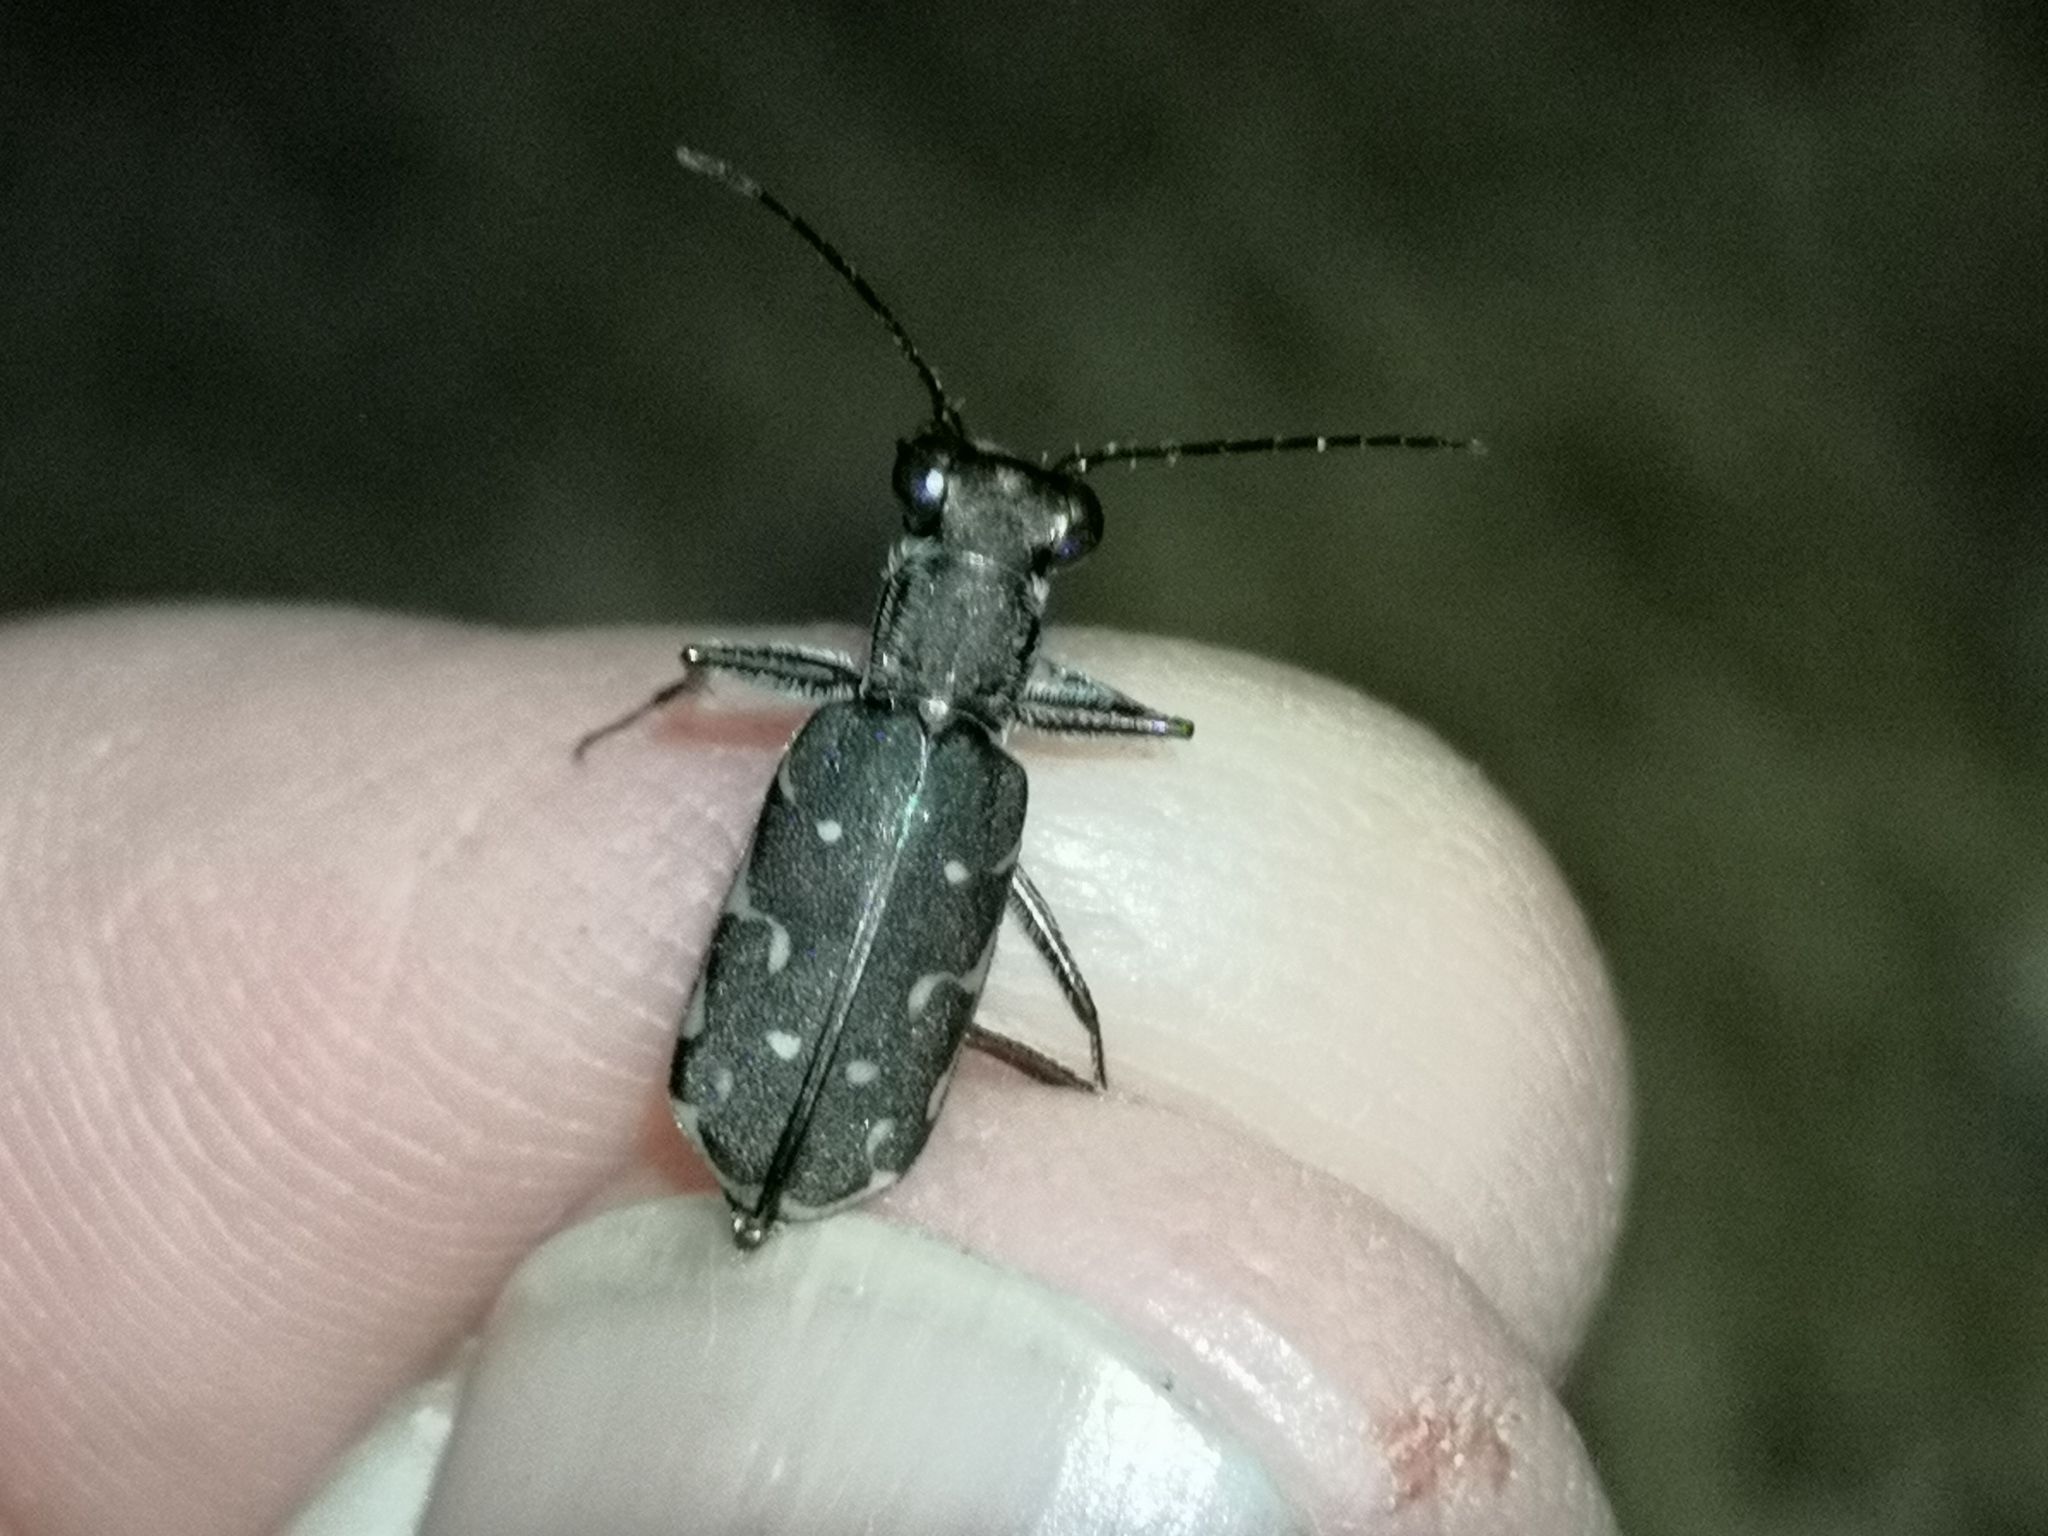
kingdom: Animalia
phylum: Arthropoda
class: Insecta
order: Coleoptera
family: Carabidae
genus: Myriochila
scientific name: Myriochila melancholica
